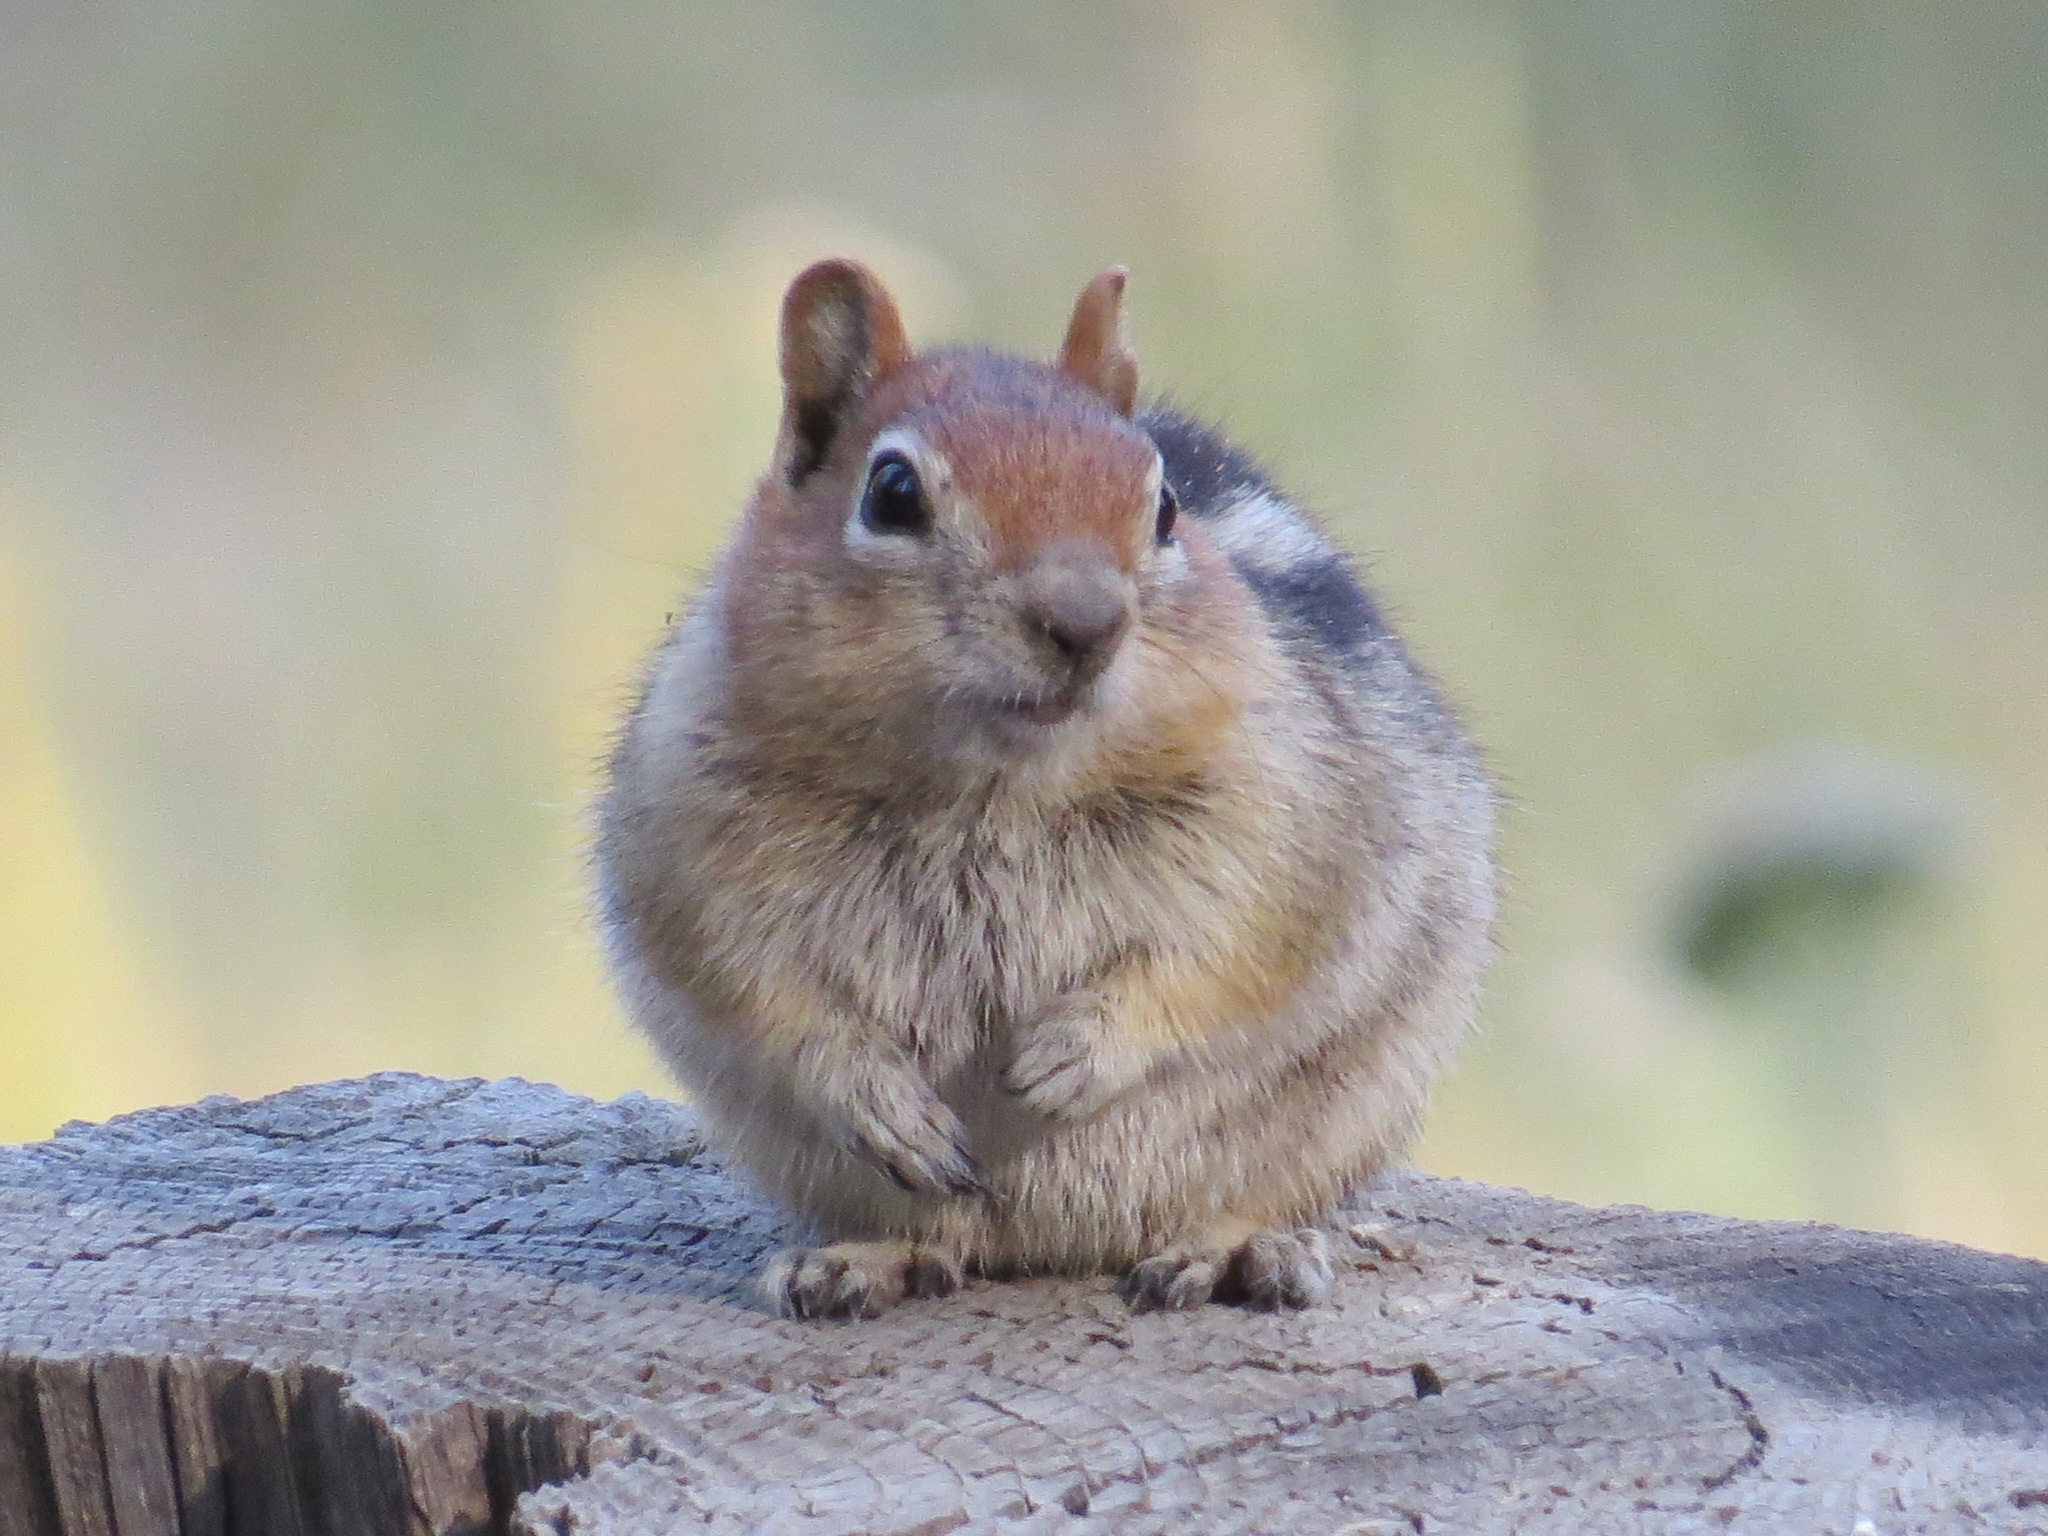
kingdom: Animalia
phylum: Chordata
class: Mammalia
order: Rodentia
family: Sciuridae
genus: Callospermophilus
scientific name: Callospermophilus lateralis
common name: Golden-mantled ground squirrel
